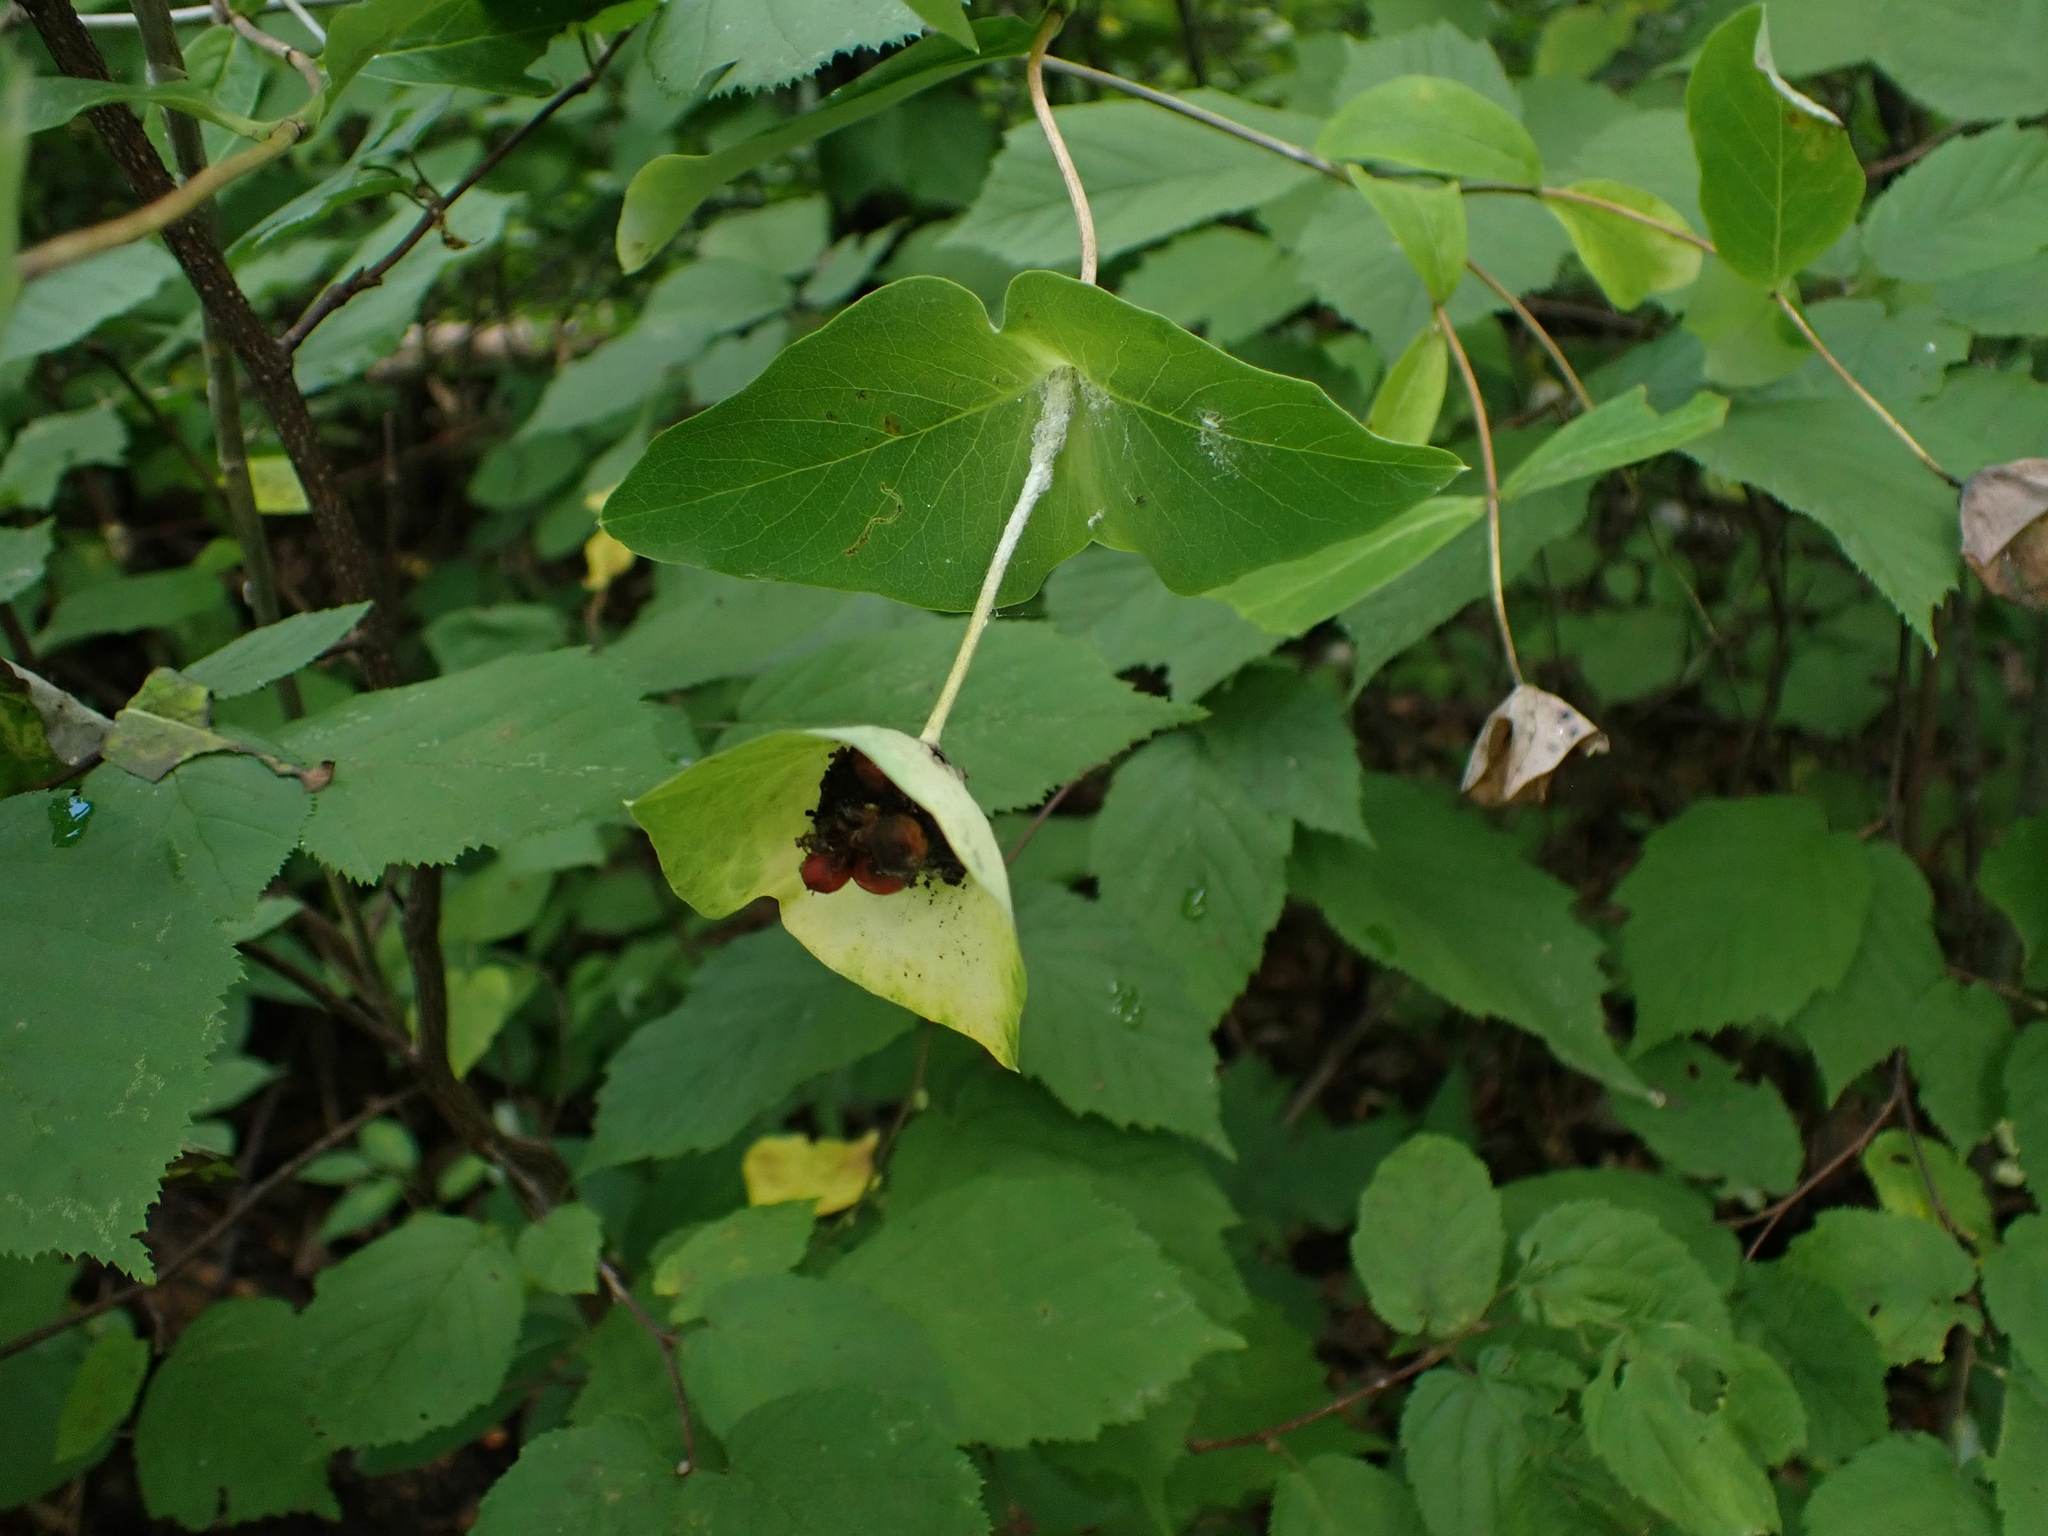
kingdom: Plantae
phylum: Tracheophyta
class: Magnoliopsida
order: Dipsacales
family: Caprifoliaceae
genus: Lonicera
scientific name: Lonicera dioica
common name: Limber honeysuckle
